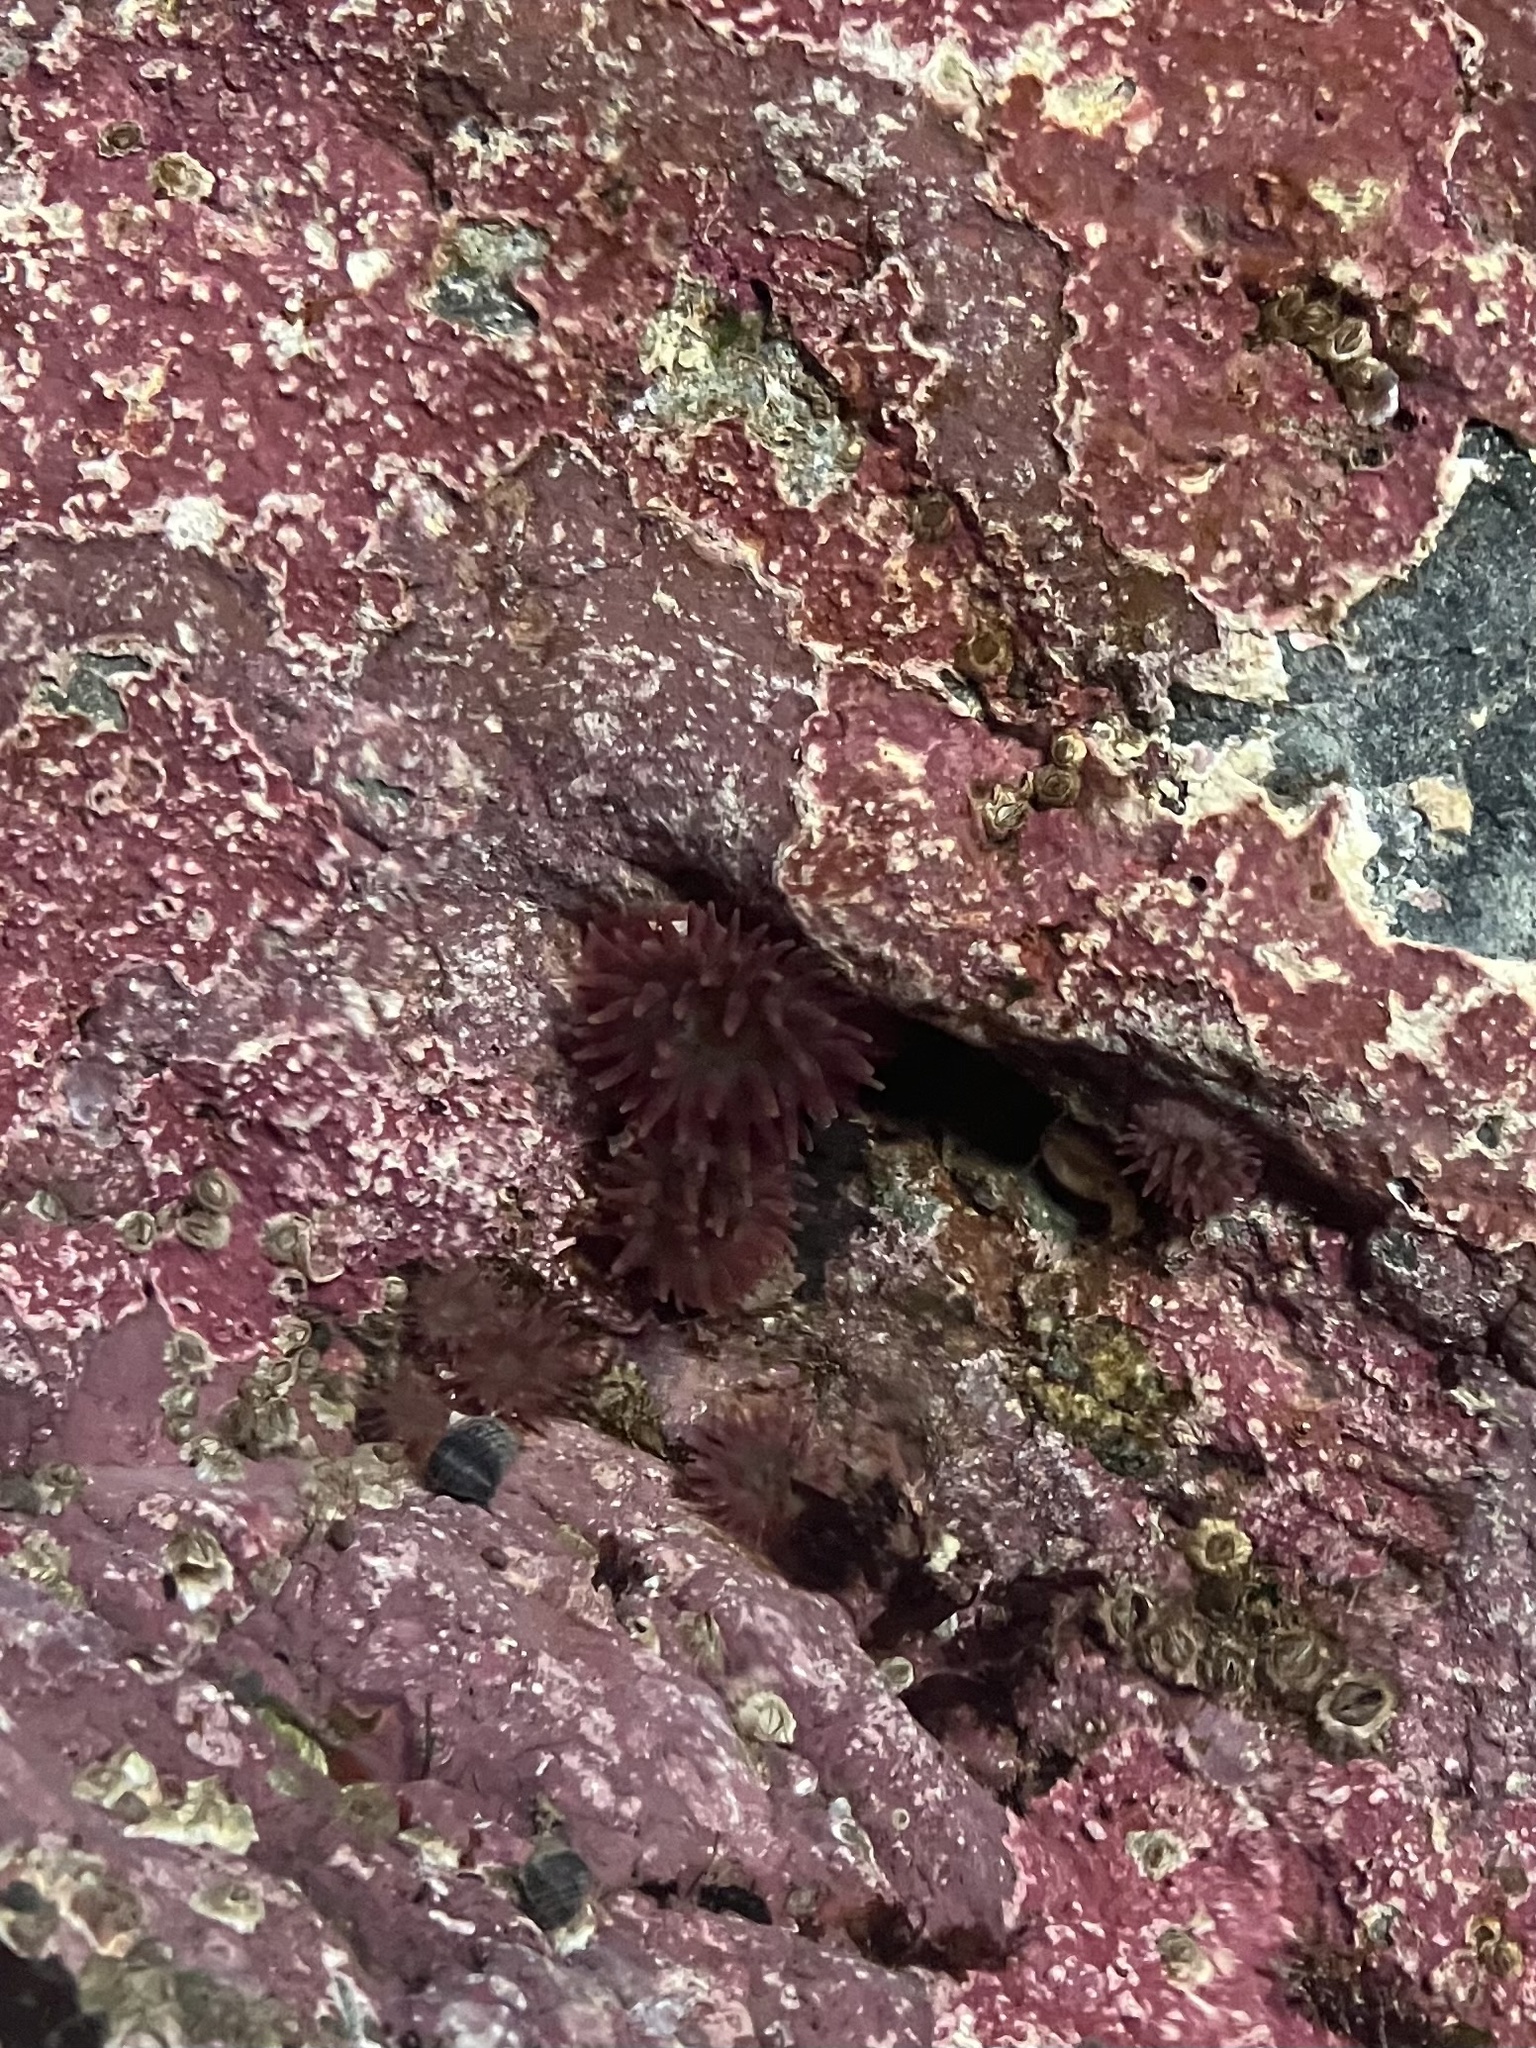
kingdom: Animalia
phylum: Cnidaria
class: Anthozoa
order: Actiniaria
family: Actiniidae
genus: Urticina
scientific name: Urticina crassicornis
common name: Mottled anemone
